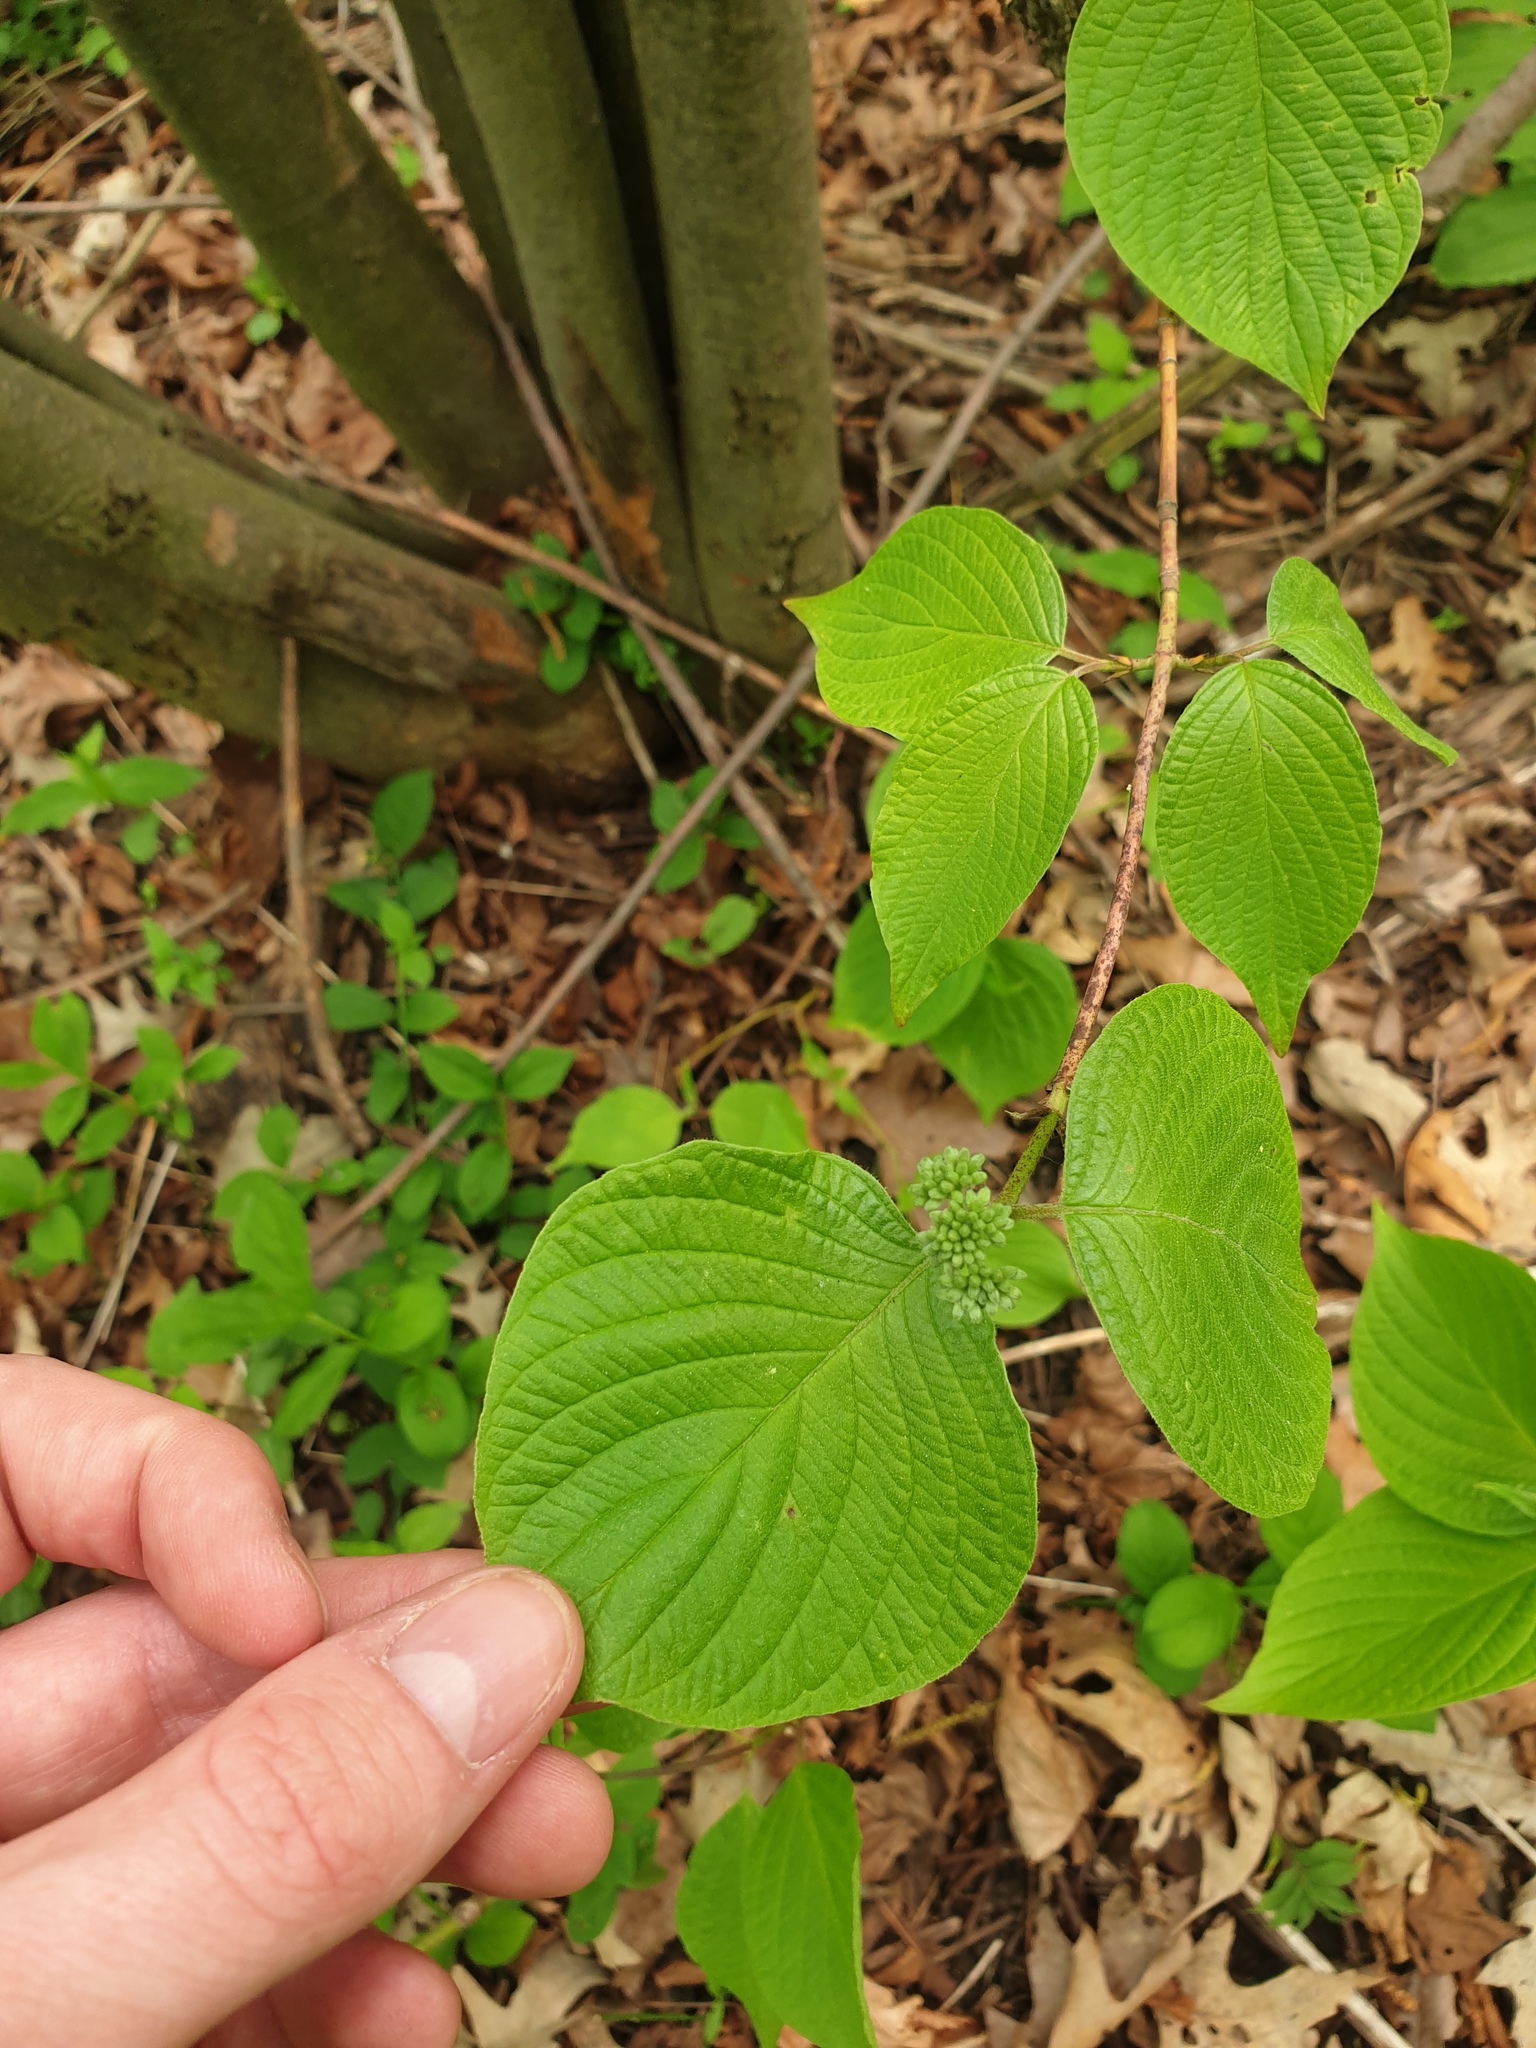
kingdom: Plantae
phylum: Tracheophyta
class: Magnoliopsida
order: Cornales
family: Cornaceae
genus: Cornus
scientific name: Cornus rugosa
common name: Round-leaf dogwood
